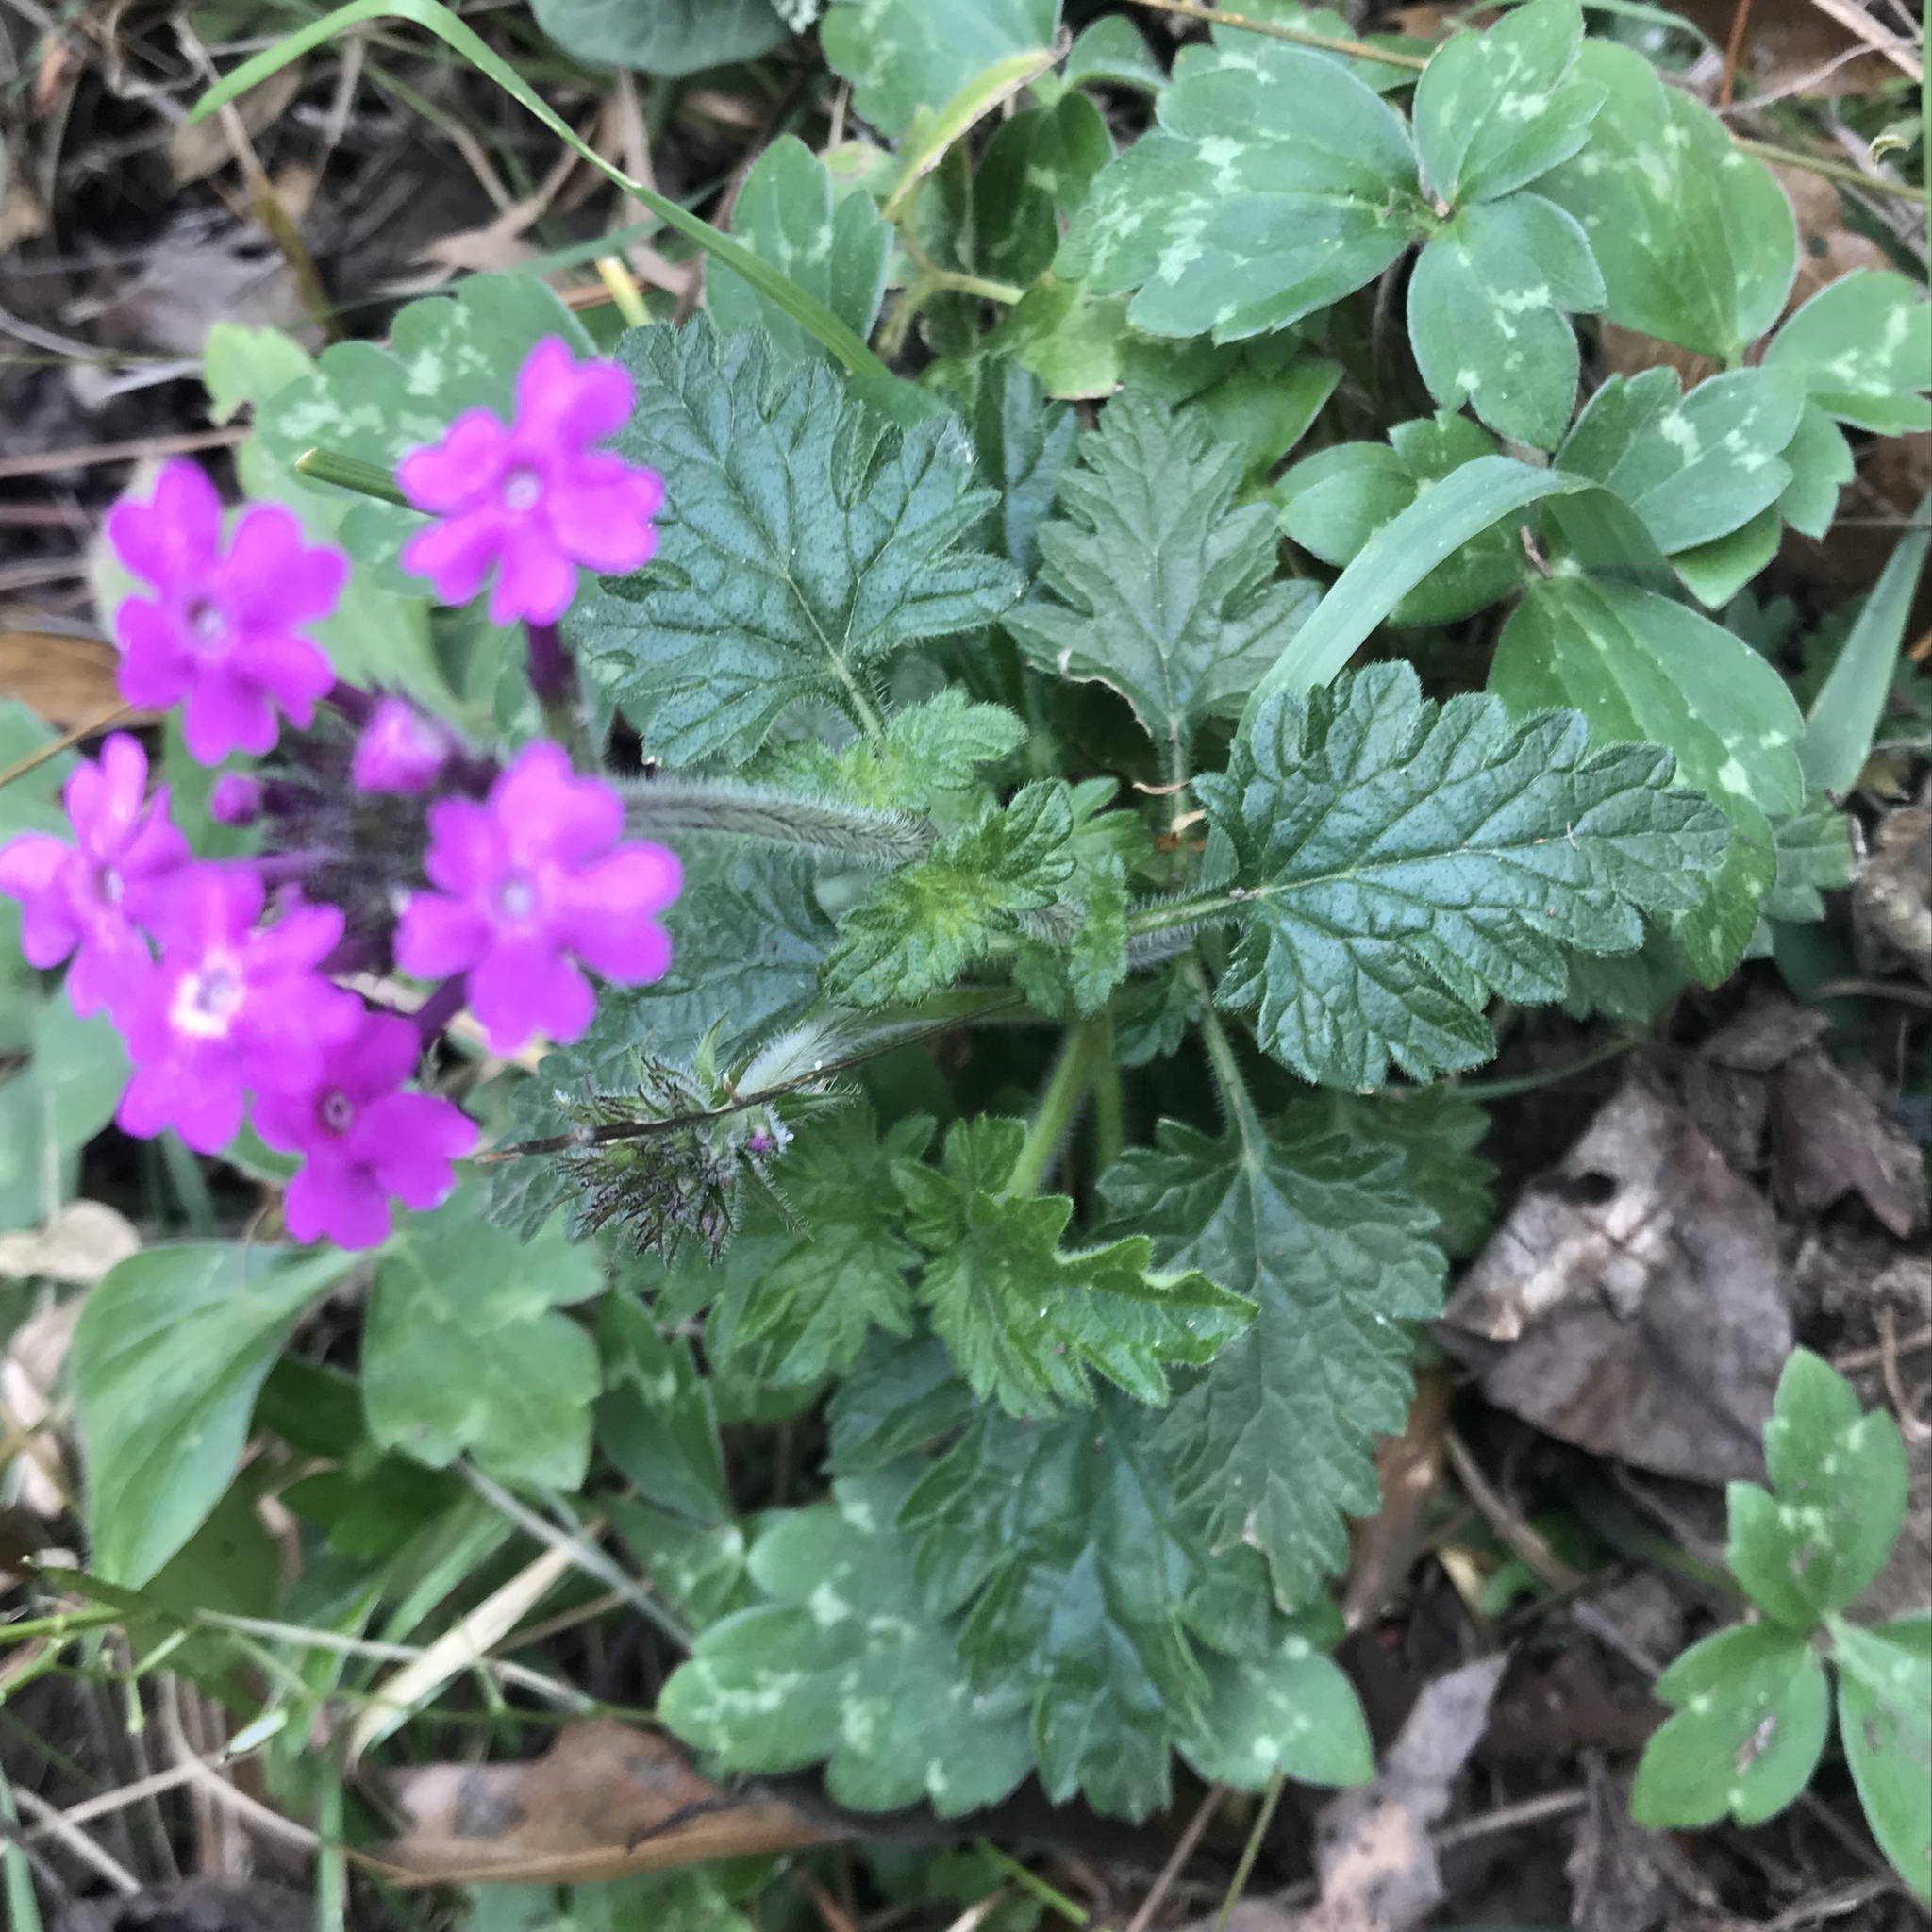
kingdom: Plantae
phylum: Tracheophyta
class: Magnoliopsida
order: Lamiales
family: Verbenaceae
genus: Verbena
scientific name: Verbena canadensis
